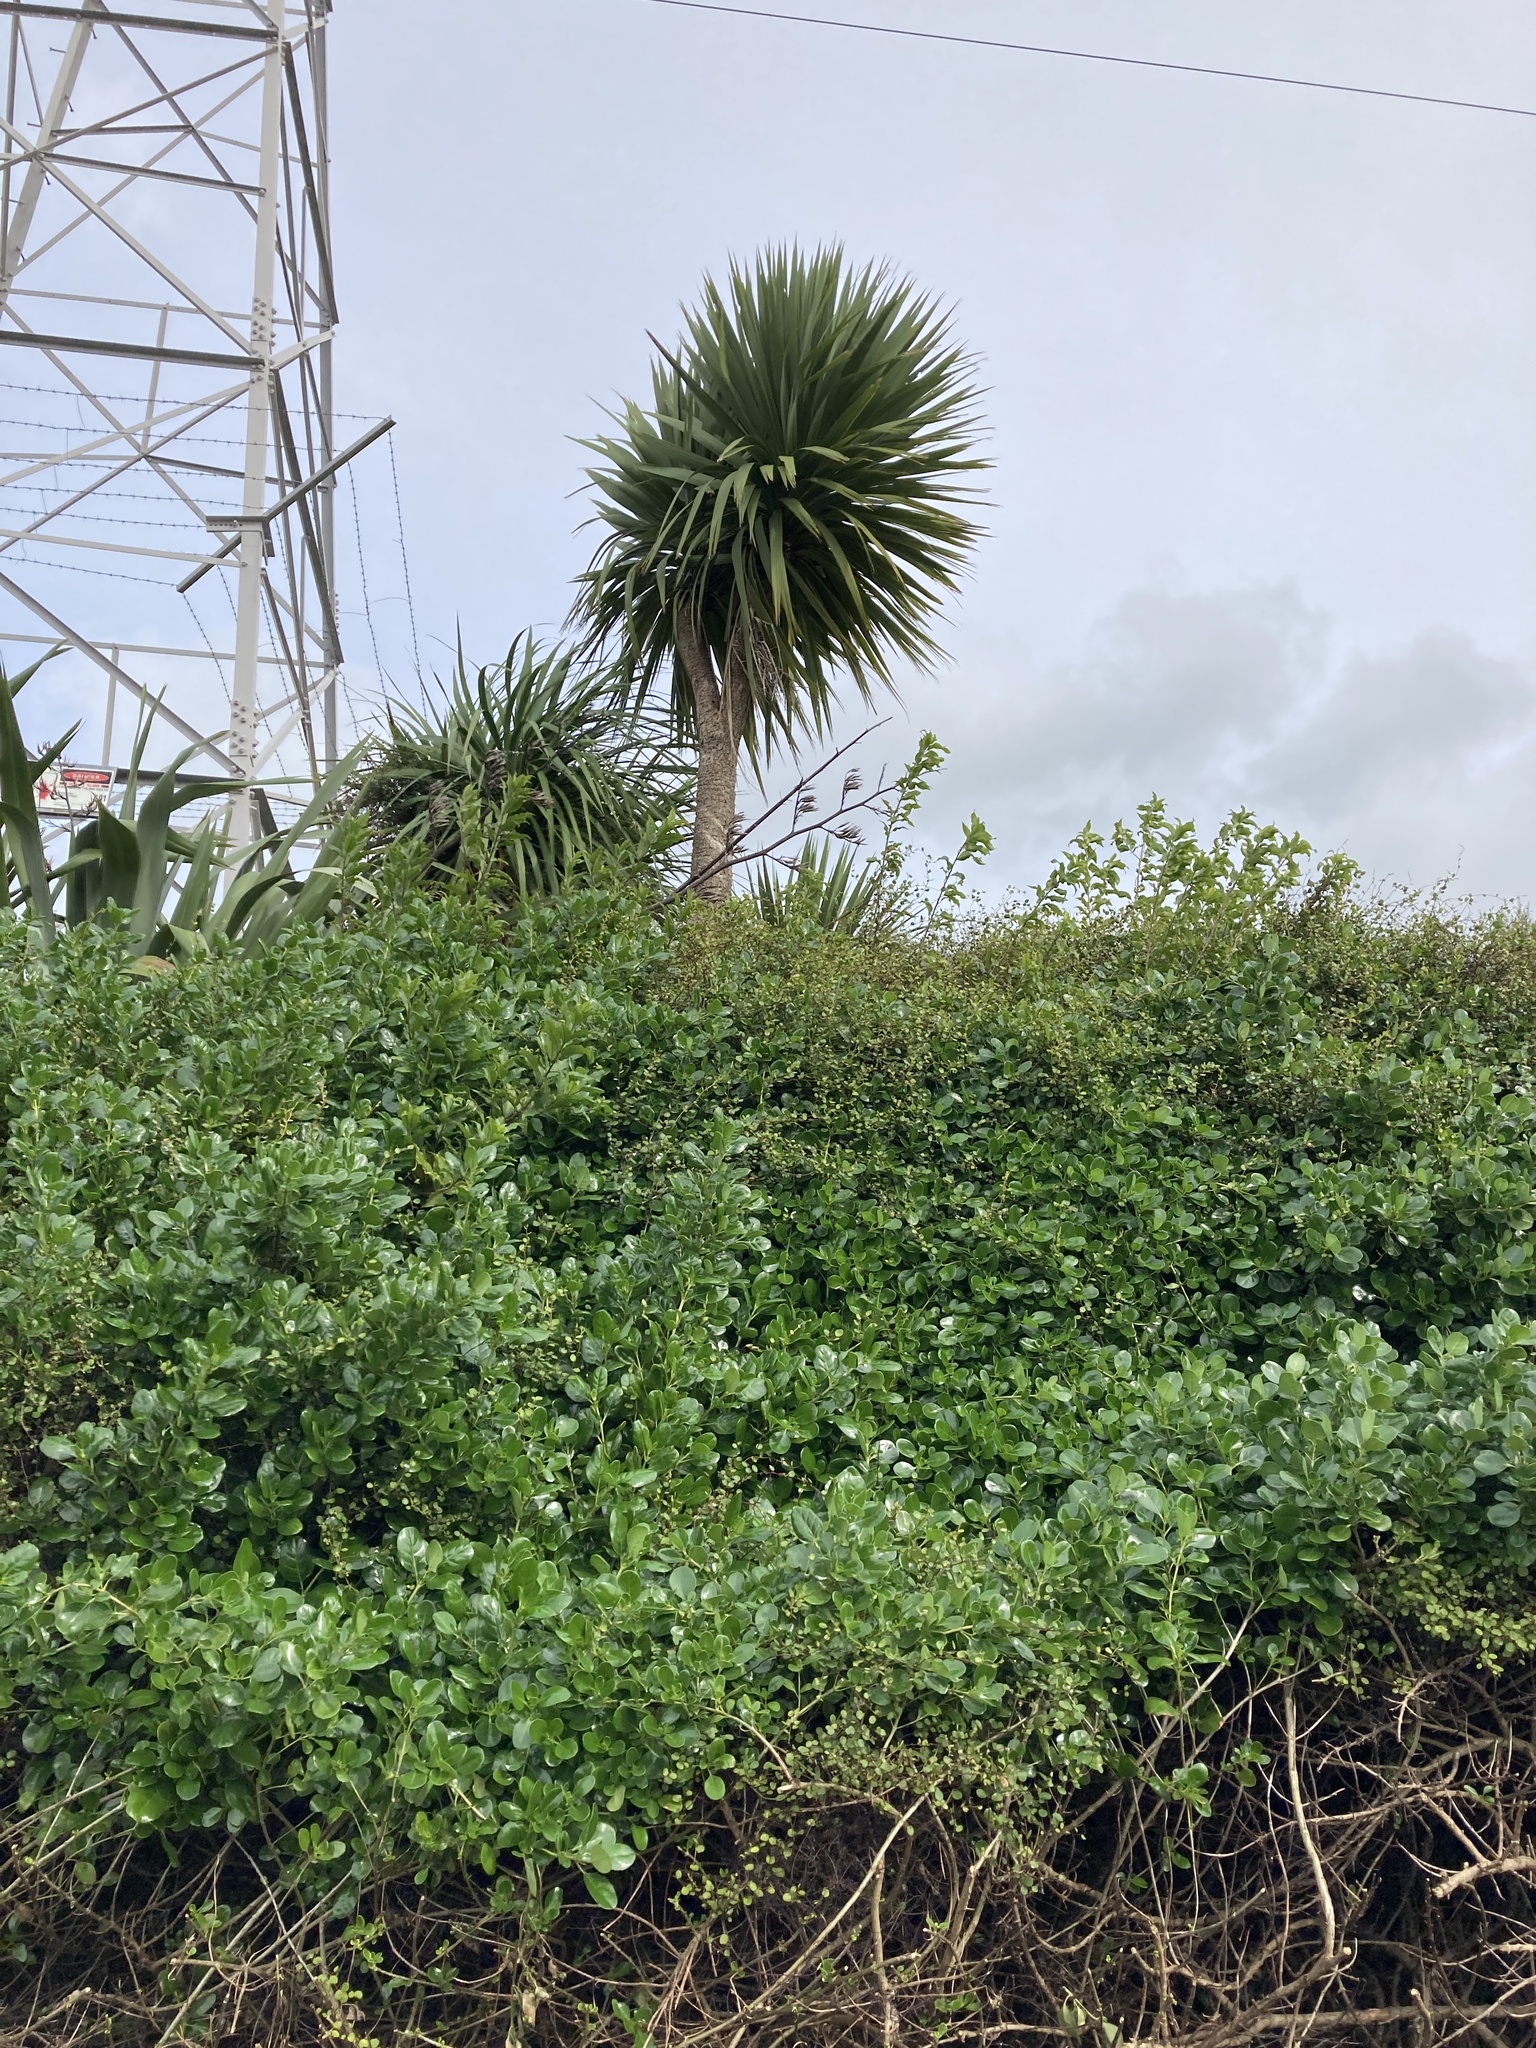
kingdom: Plantae
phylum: Tracheophyta
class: Liliopsida
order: Asparagales
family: Asparagaceae
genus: Cordyline
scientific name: Cordyline australis
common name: Cabbage-palm
